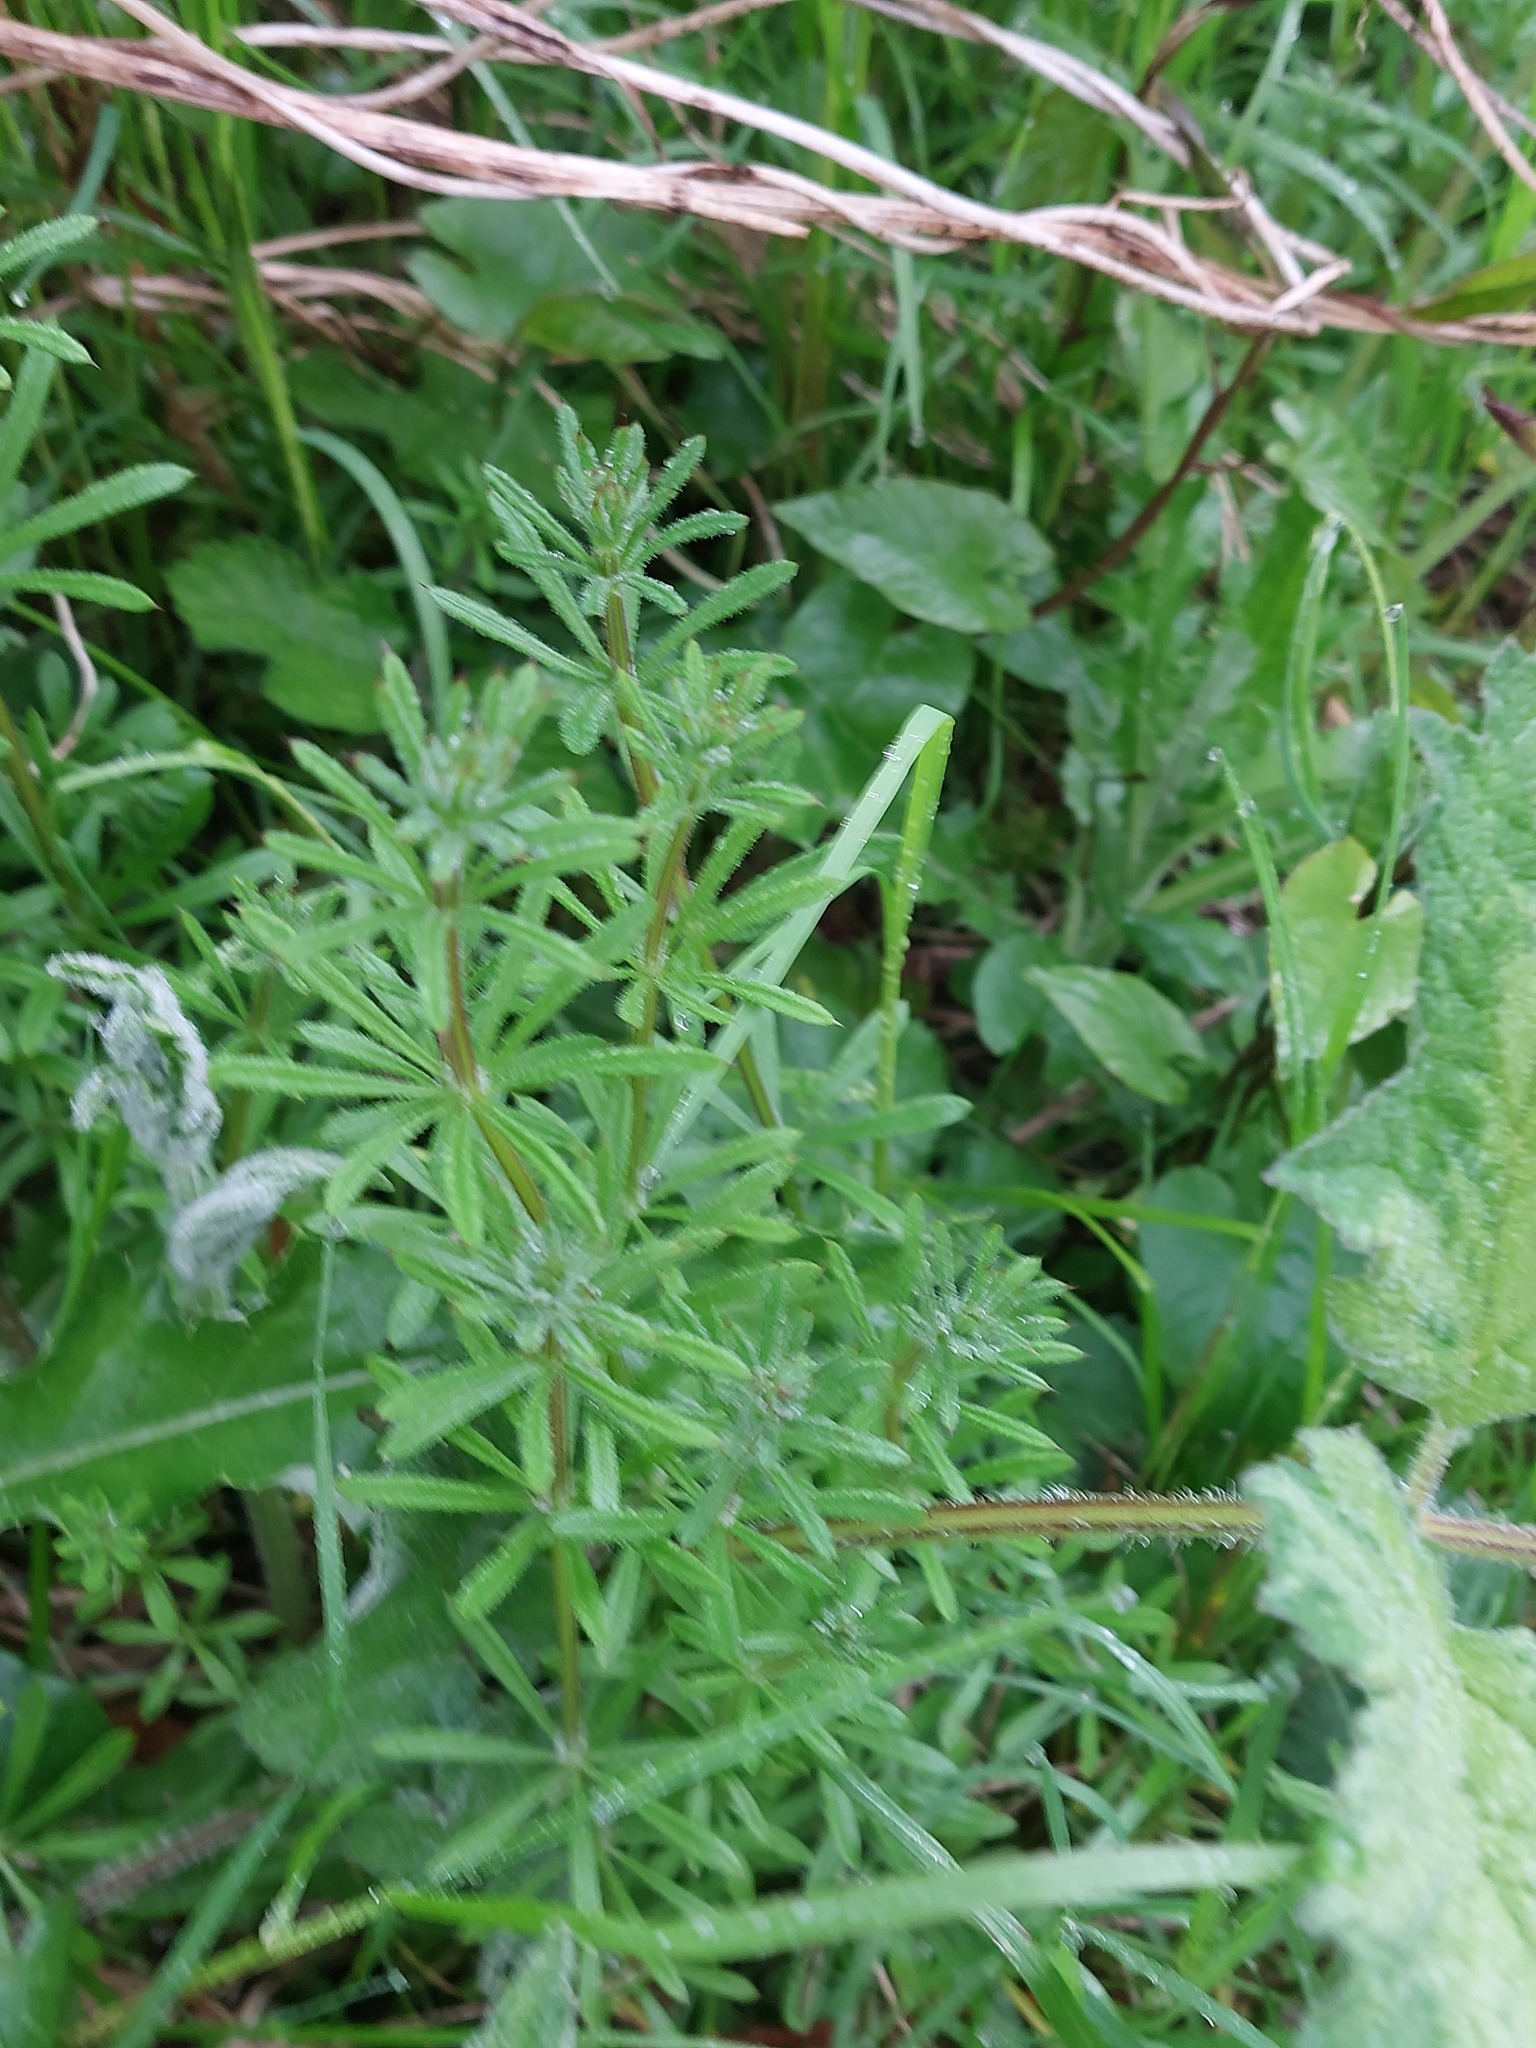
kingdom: Plantae
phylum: Tracheophyta
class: Magnoliopsida
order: Gentianales
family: Rubiaceae
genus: Galium
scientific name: Galium aparine
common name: Cleavers
